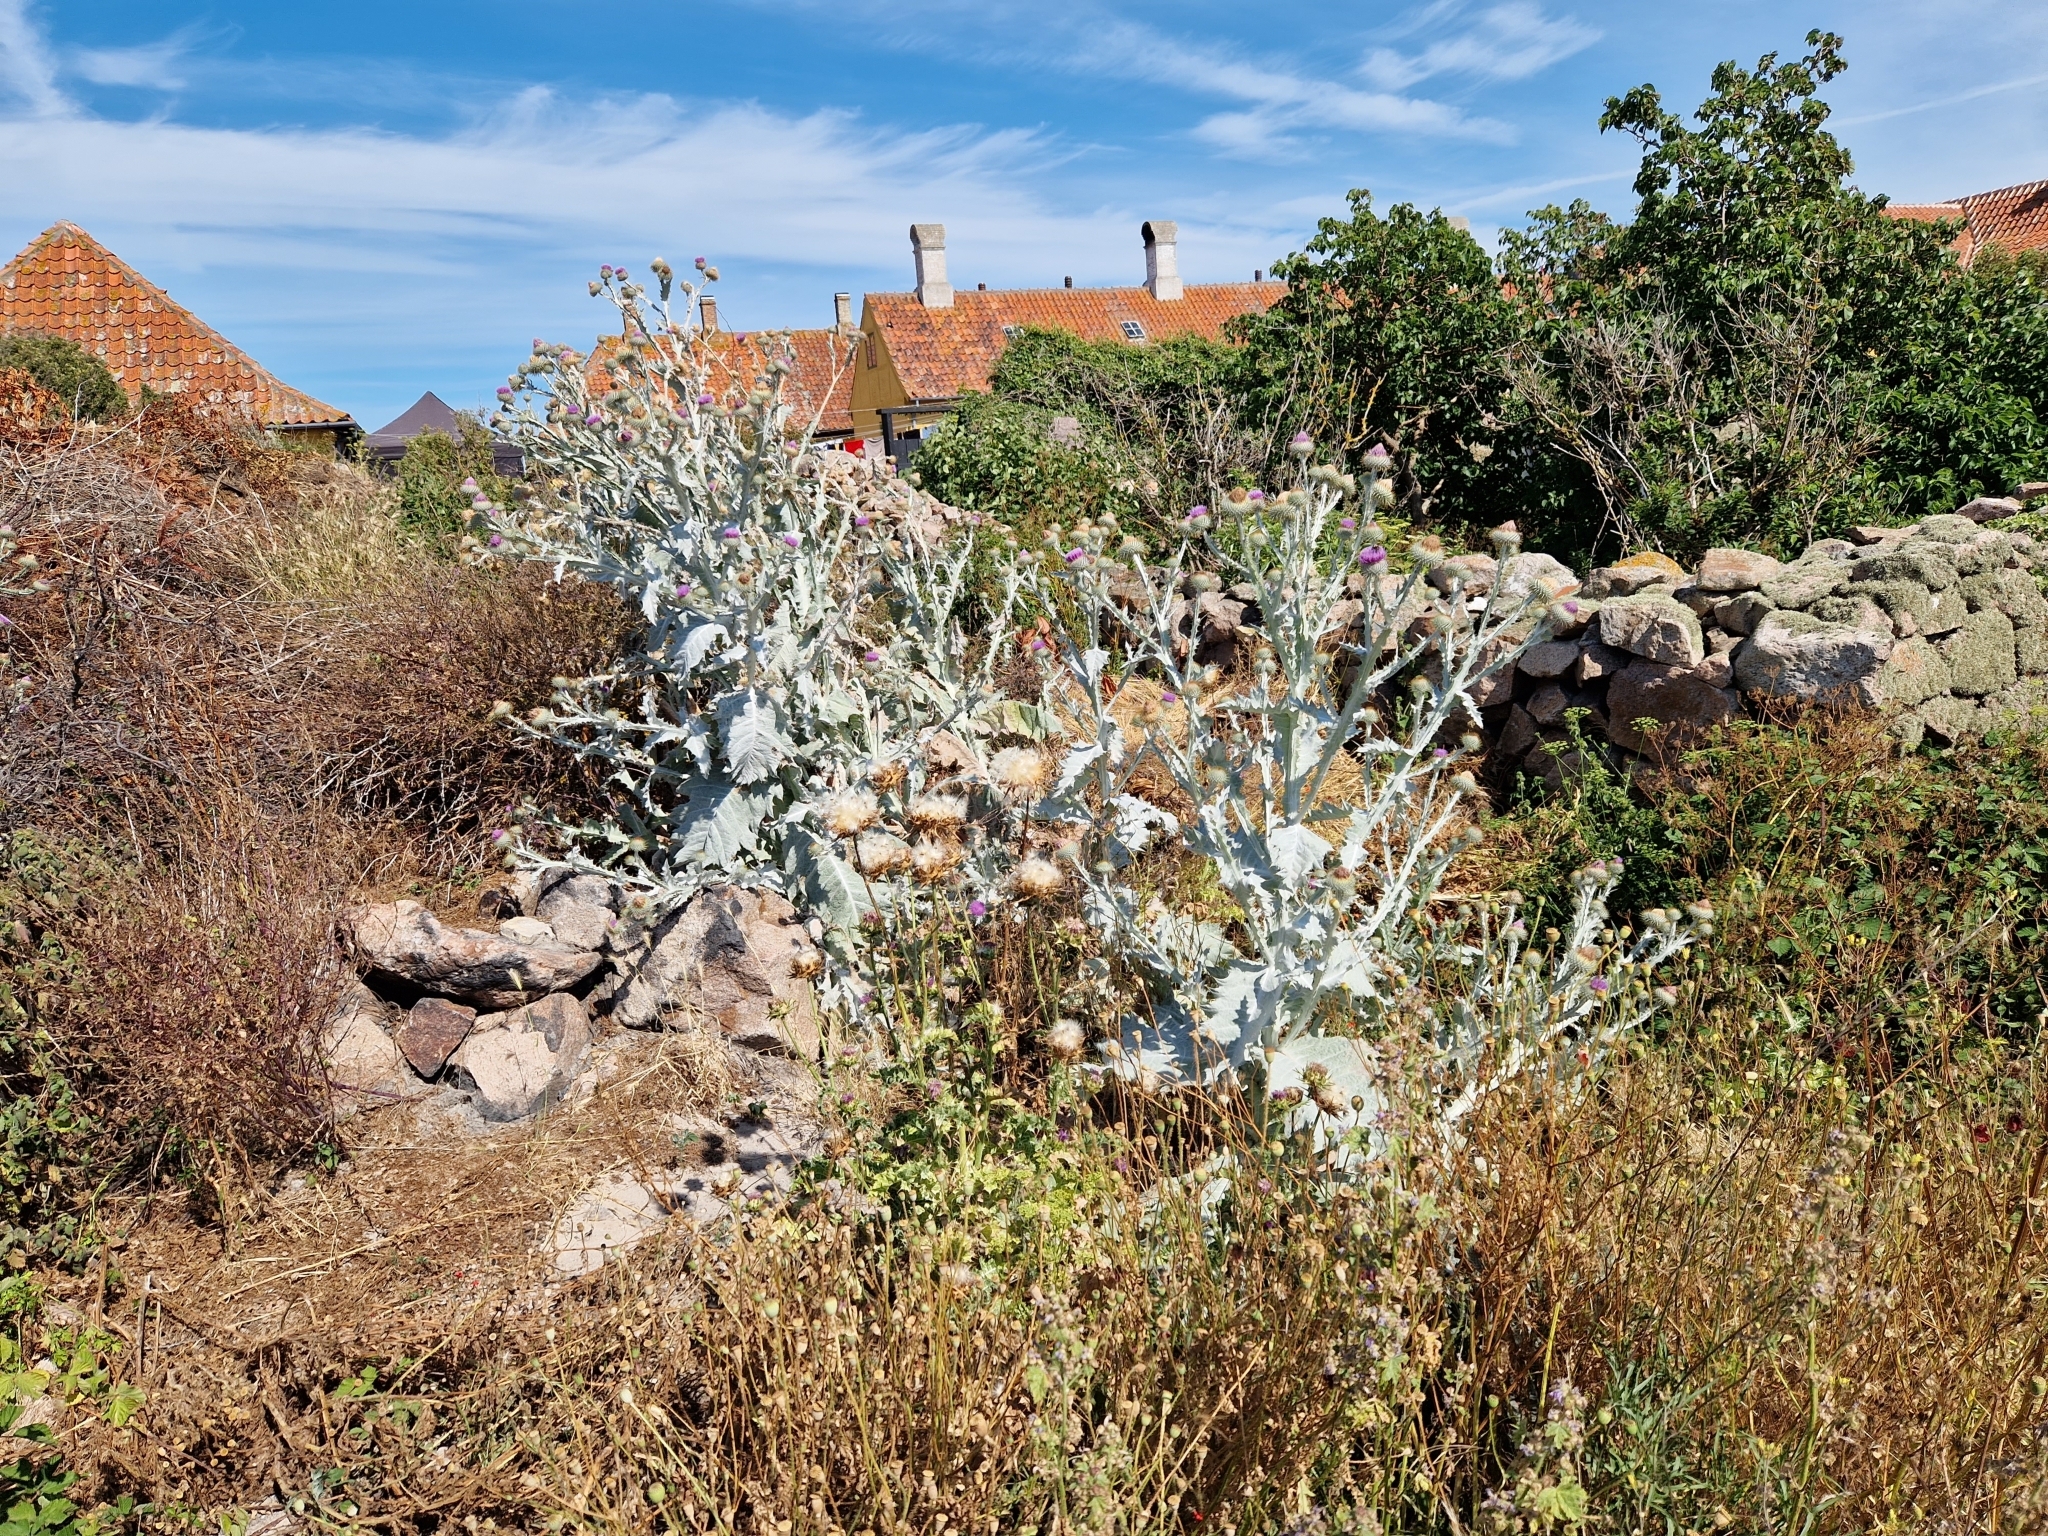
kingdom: Plantae
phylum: Tracheophyta
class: Magnoliopsida
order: Asterales
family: Asteraceae
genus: Onopordum
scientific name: Onopordum acanthium
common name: Scotch thistle
